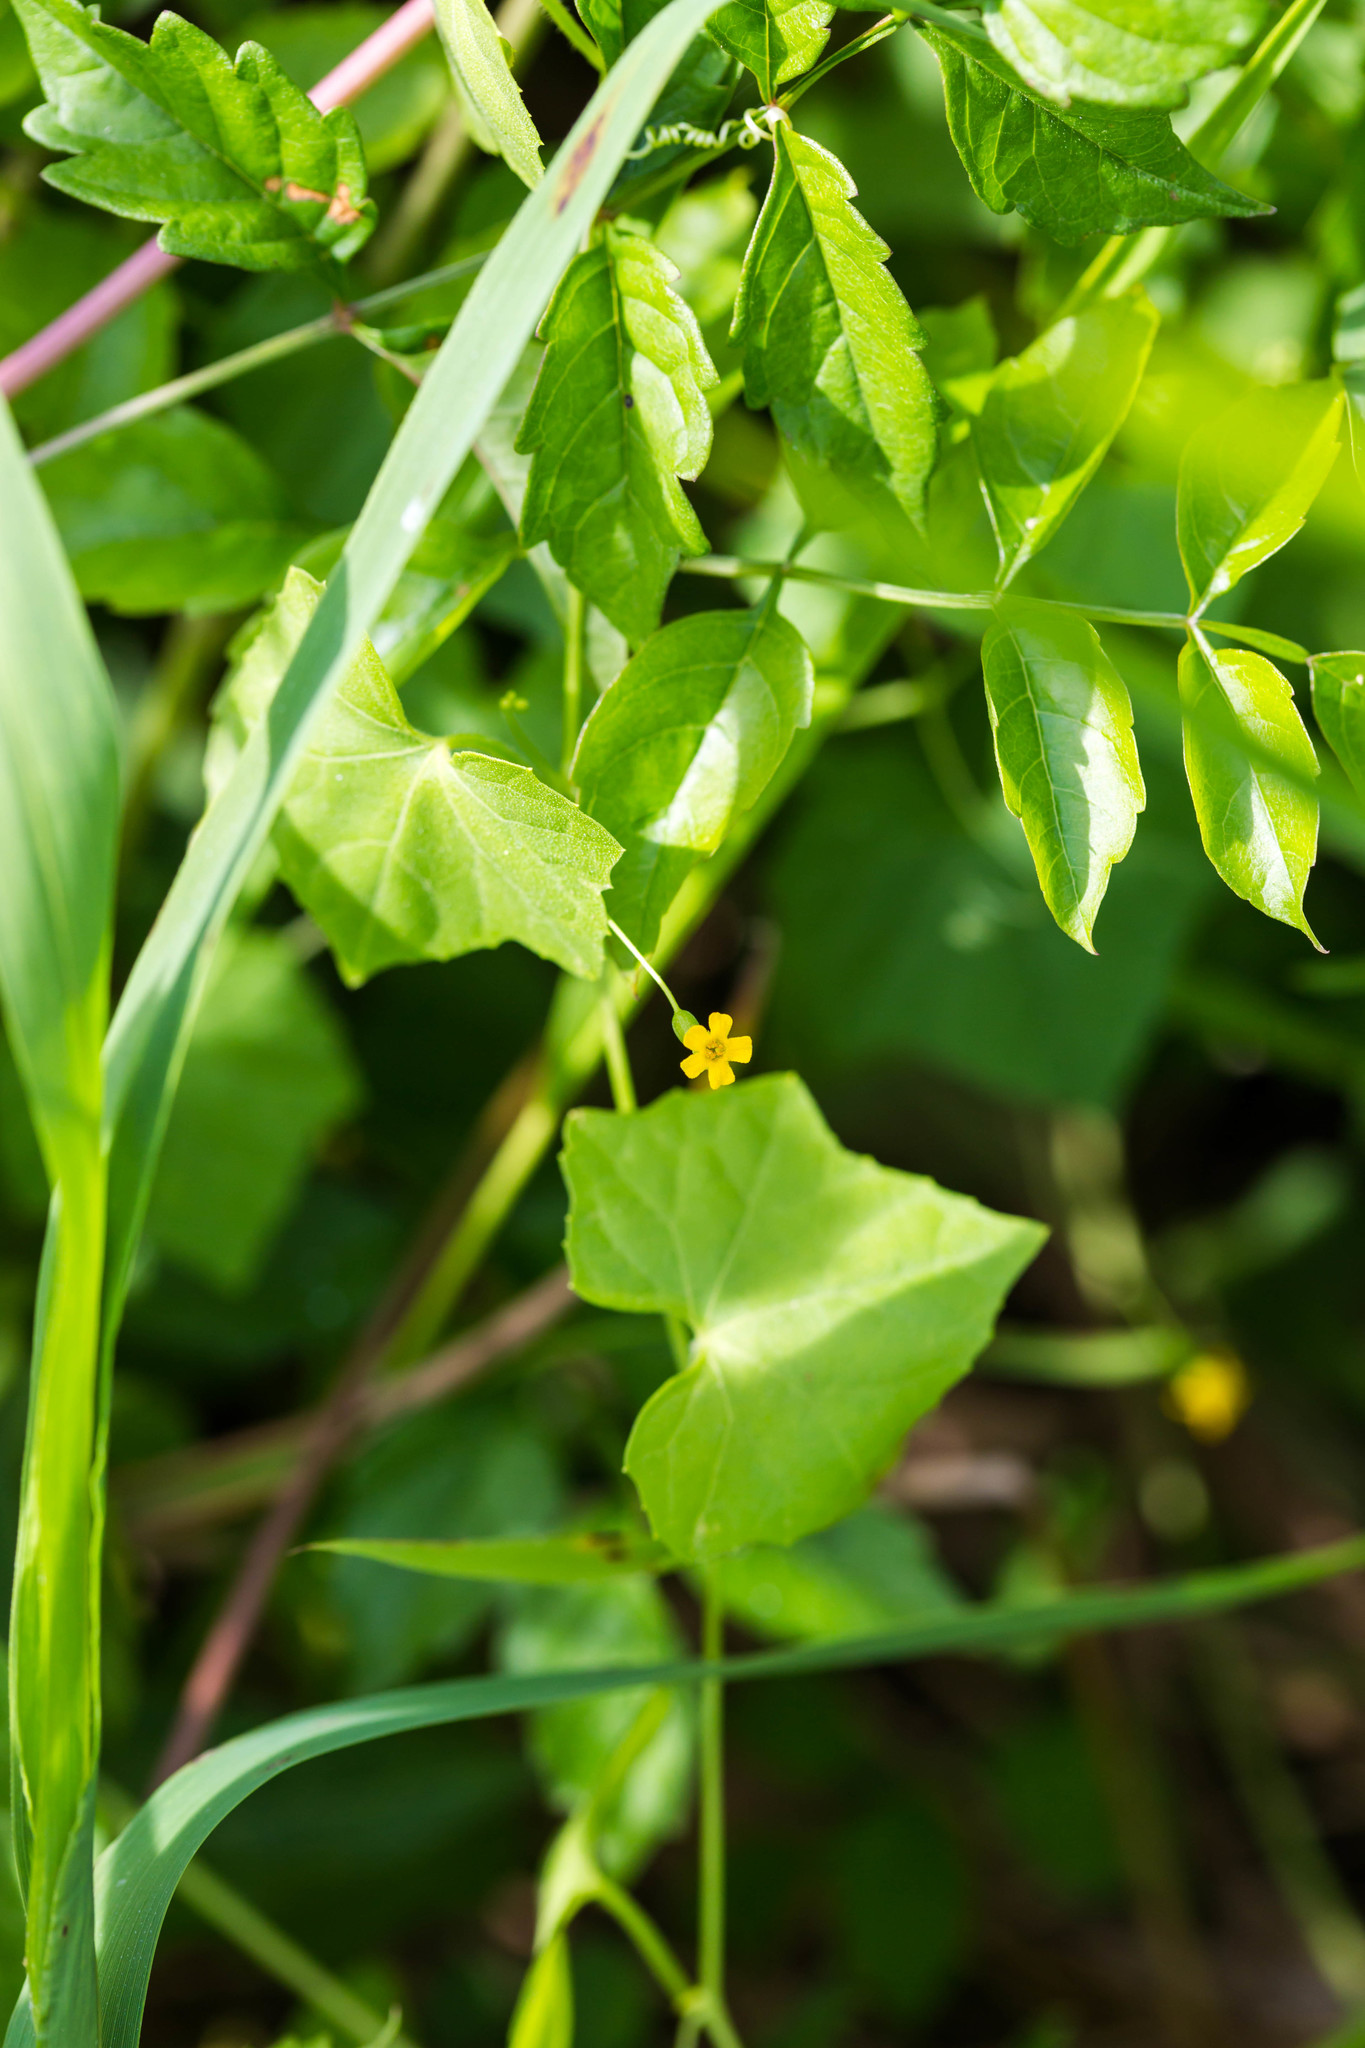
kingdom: Plantae
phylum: Tracheophyta
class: Magnoliopsida
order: Cucurbitales
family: Cucurbitaceae
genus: Melothria
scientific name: Melothria pendula
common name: Creeping-cucumber
